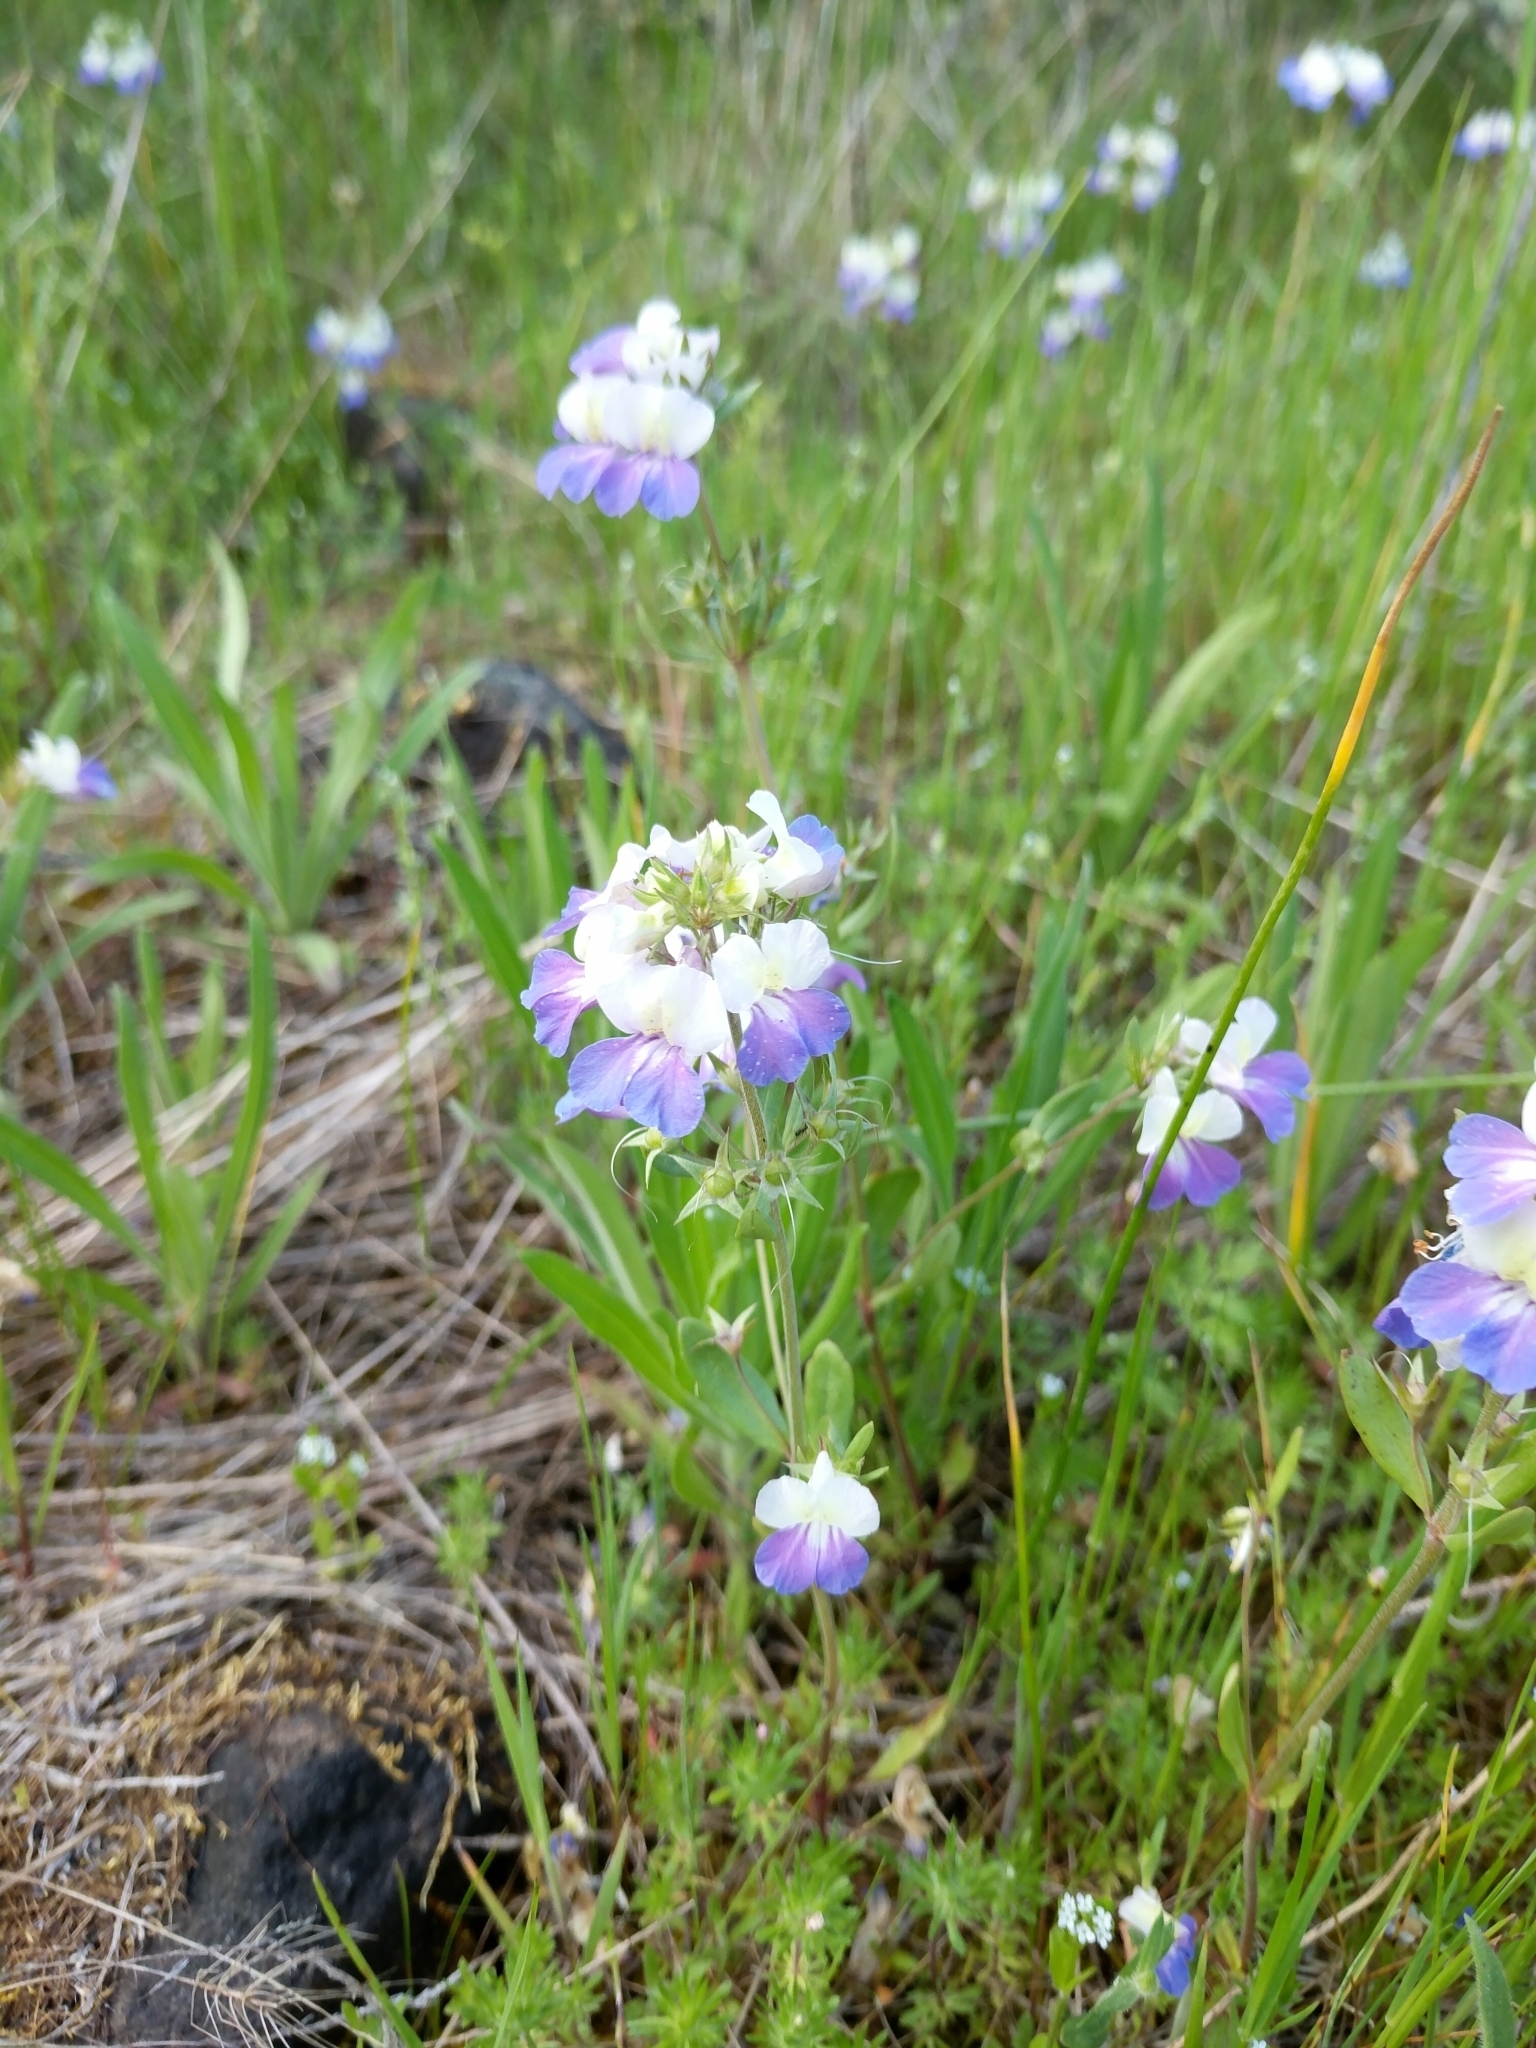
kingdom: Plantae
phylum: Tracheophyta
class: Magnoliopsida
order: Lamiales
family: Plantaginaceae
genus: Collinsia
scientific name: Collinsia grandiflora
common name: Large-flower blue-eyed-mary
